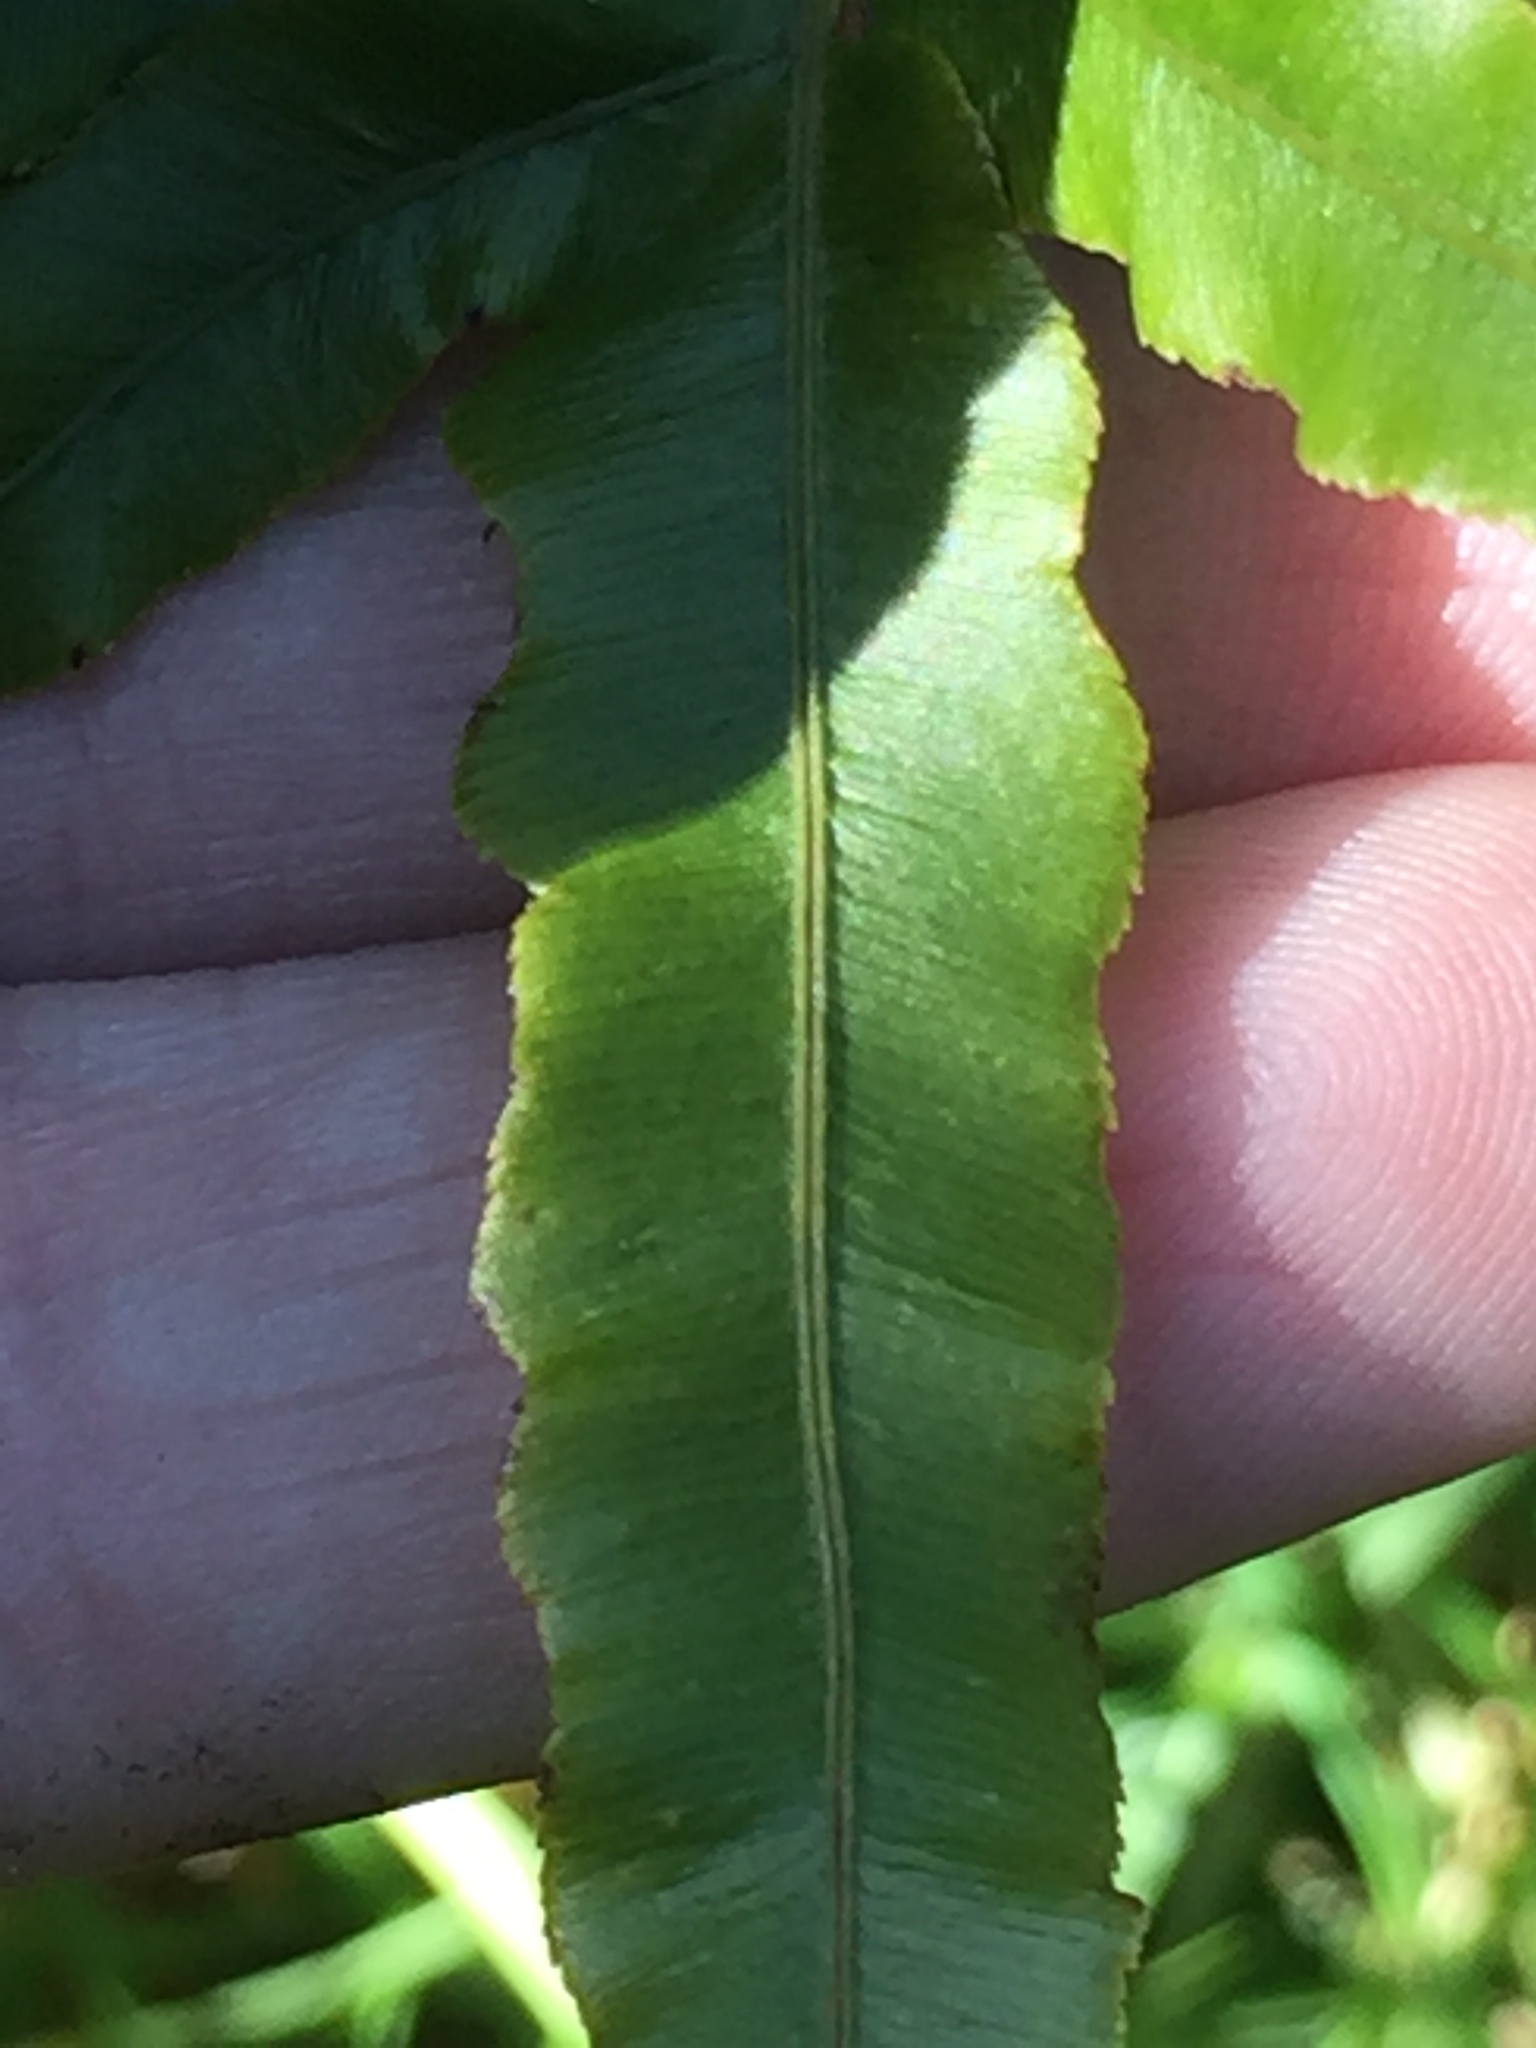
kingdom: Plantae
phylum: Tracheophyta
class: Polypodiopsida
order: Polypodiales
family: Blechnaceae
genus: Parablechnum
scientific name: Parablechnum minus
